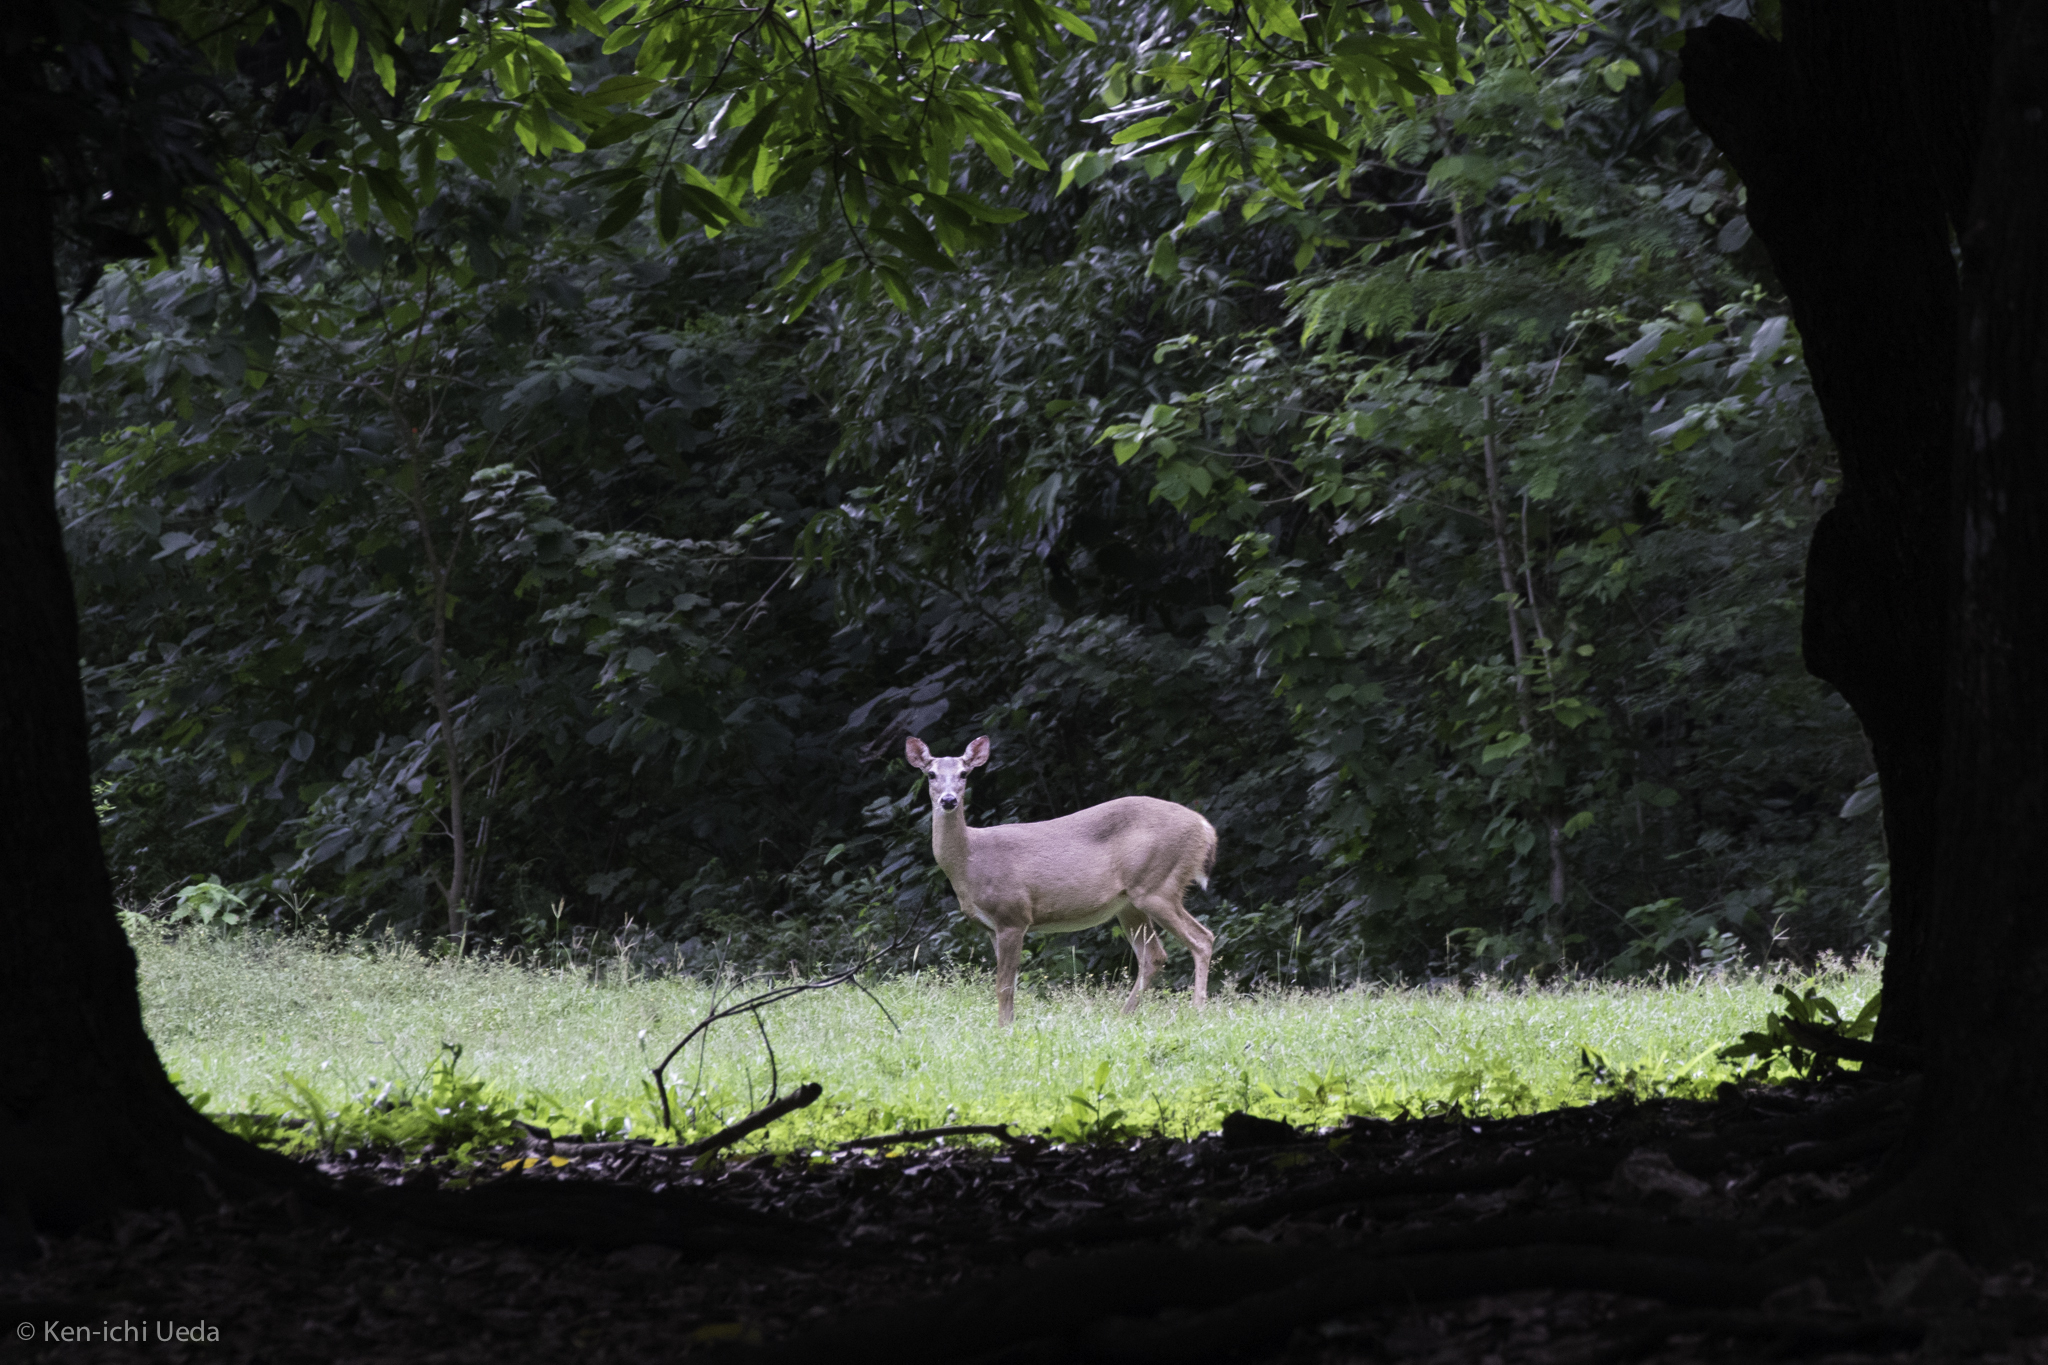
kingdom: Animalia
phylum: Chordata
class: Mammalia
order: Artiodactyla
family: Cervidae
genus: Odocoileus
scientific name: Odocoileus virginianus
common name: White-tailed deer
